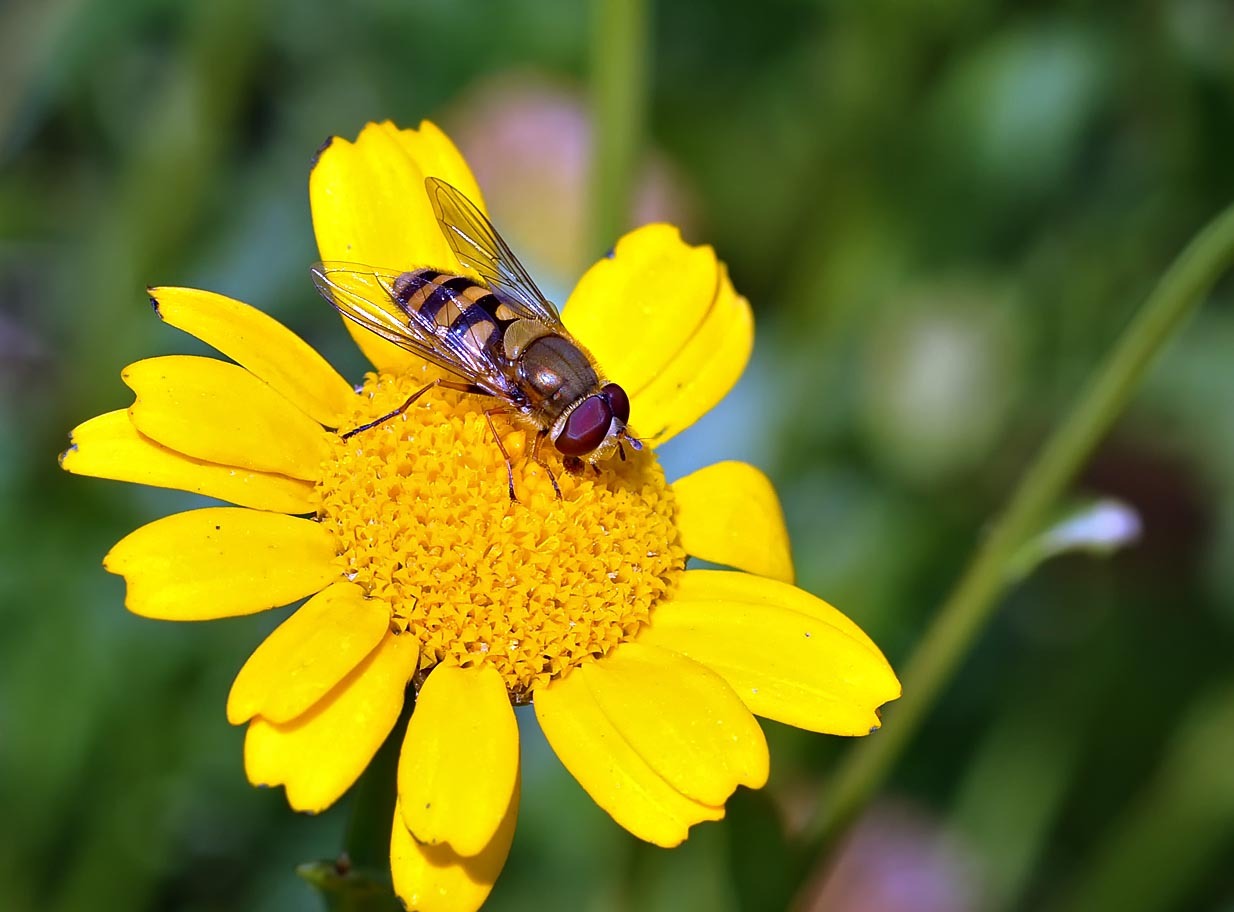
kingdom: Animalia
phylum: Arthropoda
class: Insecta
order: Diptera
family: Syrphidae
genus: Syrphus
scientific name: Syrphus
